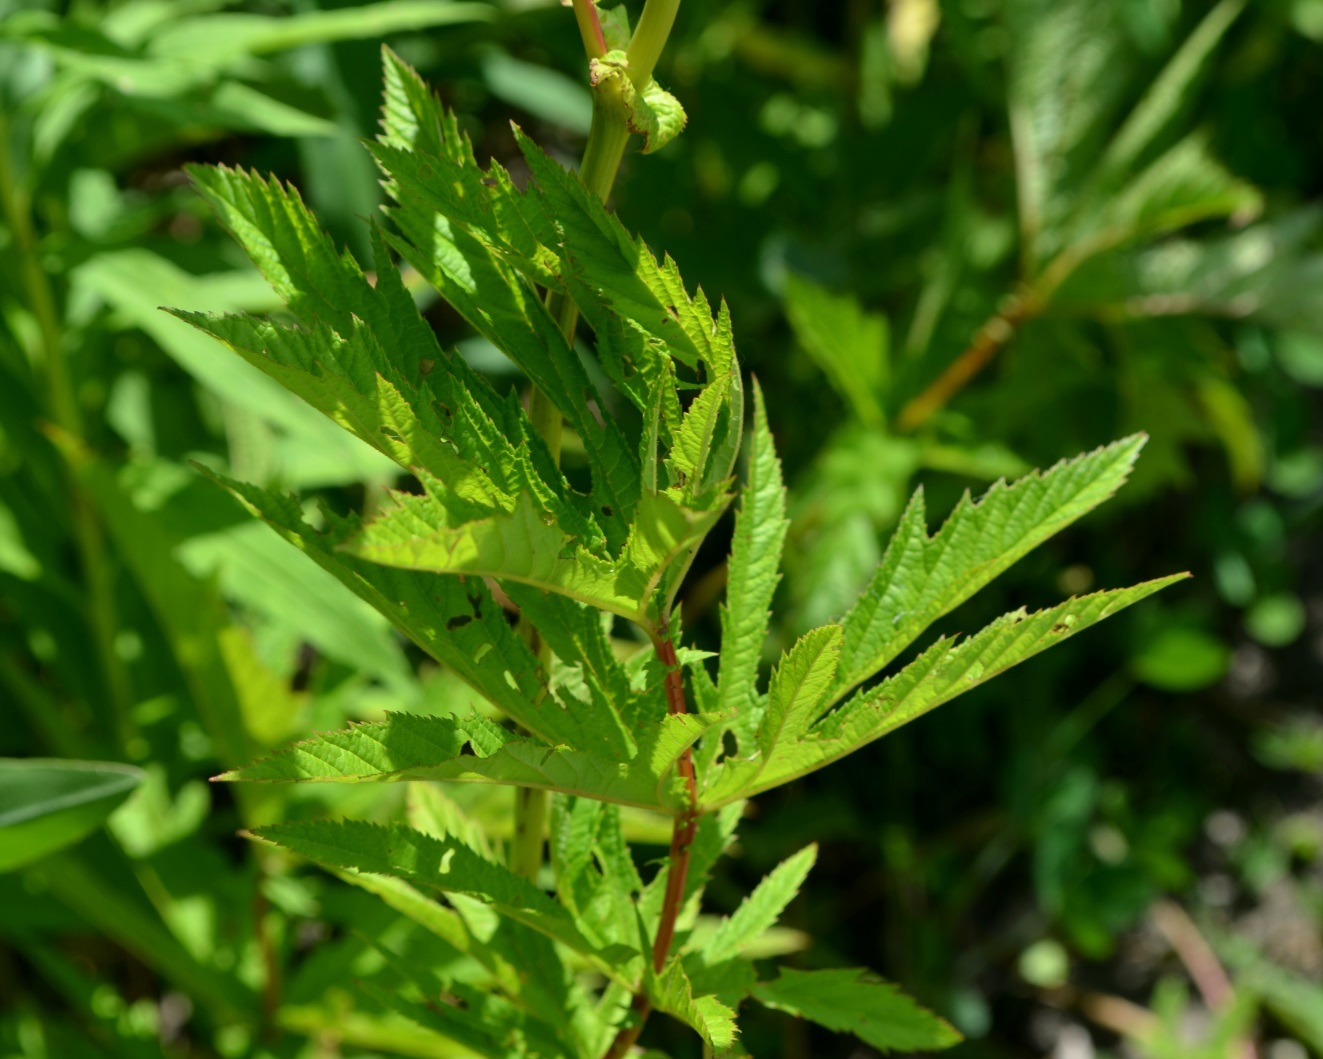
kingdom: Plantae
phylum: Tracheophyta
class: Magnoliopsida
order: Rosales
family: Rosaceae
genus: Filipendula
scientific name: Filipendula rubra
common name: Queen-of-the-prairie
